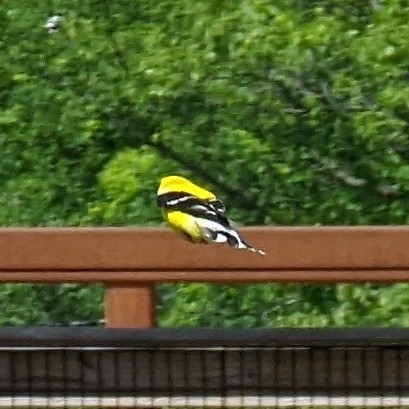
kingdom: Animalia
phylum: Chordata
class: Aves
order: Passeriformes
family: Fringillidae
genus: Spinus
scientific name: Spinus tristis
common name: American goldfinch
